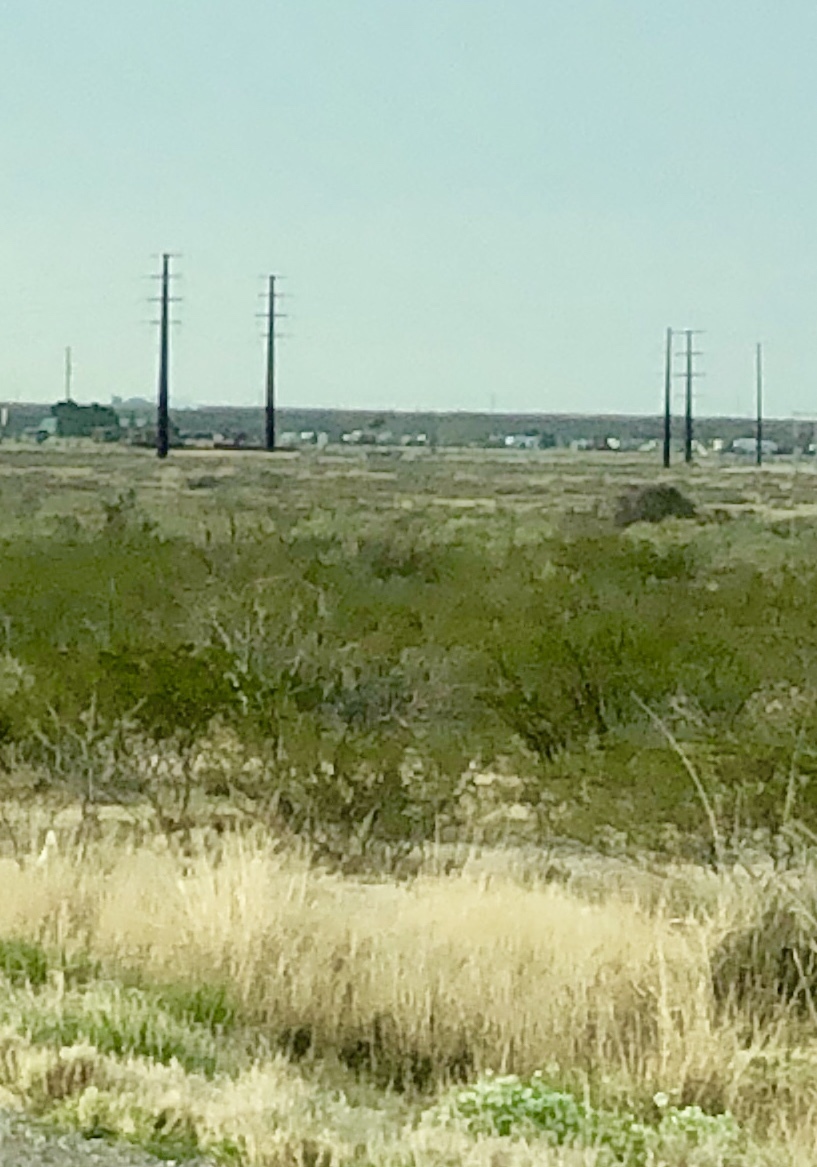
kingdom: Plantae
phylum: Tracheophyta
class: Magnoliopsida
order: Zygophyllales
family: Zygophyllaceae
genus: Larrea
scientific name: Larrea tridentata
